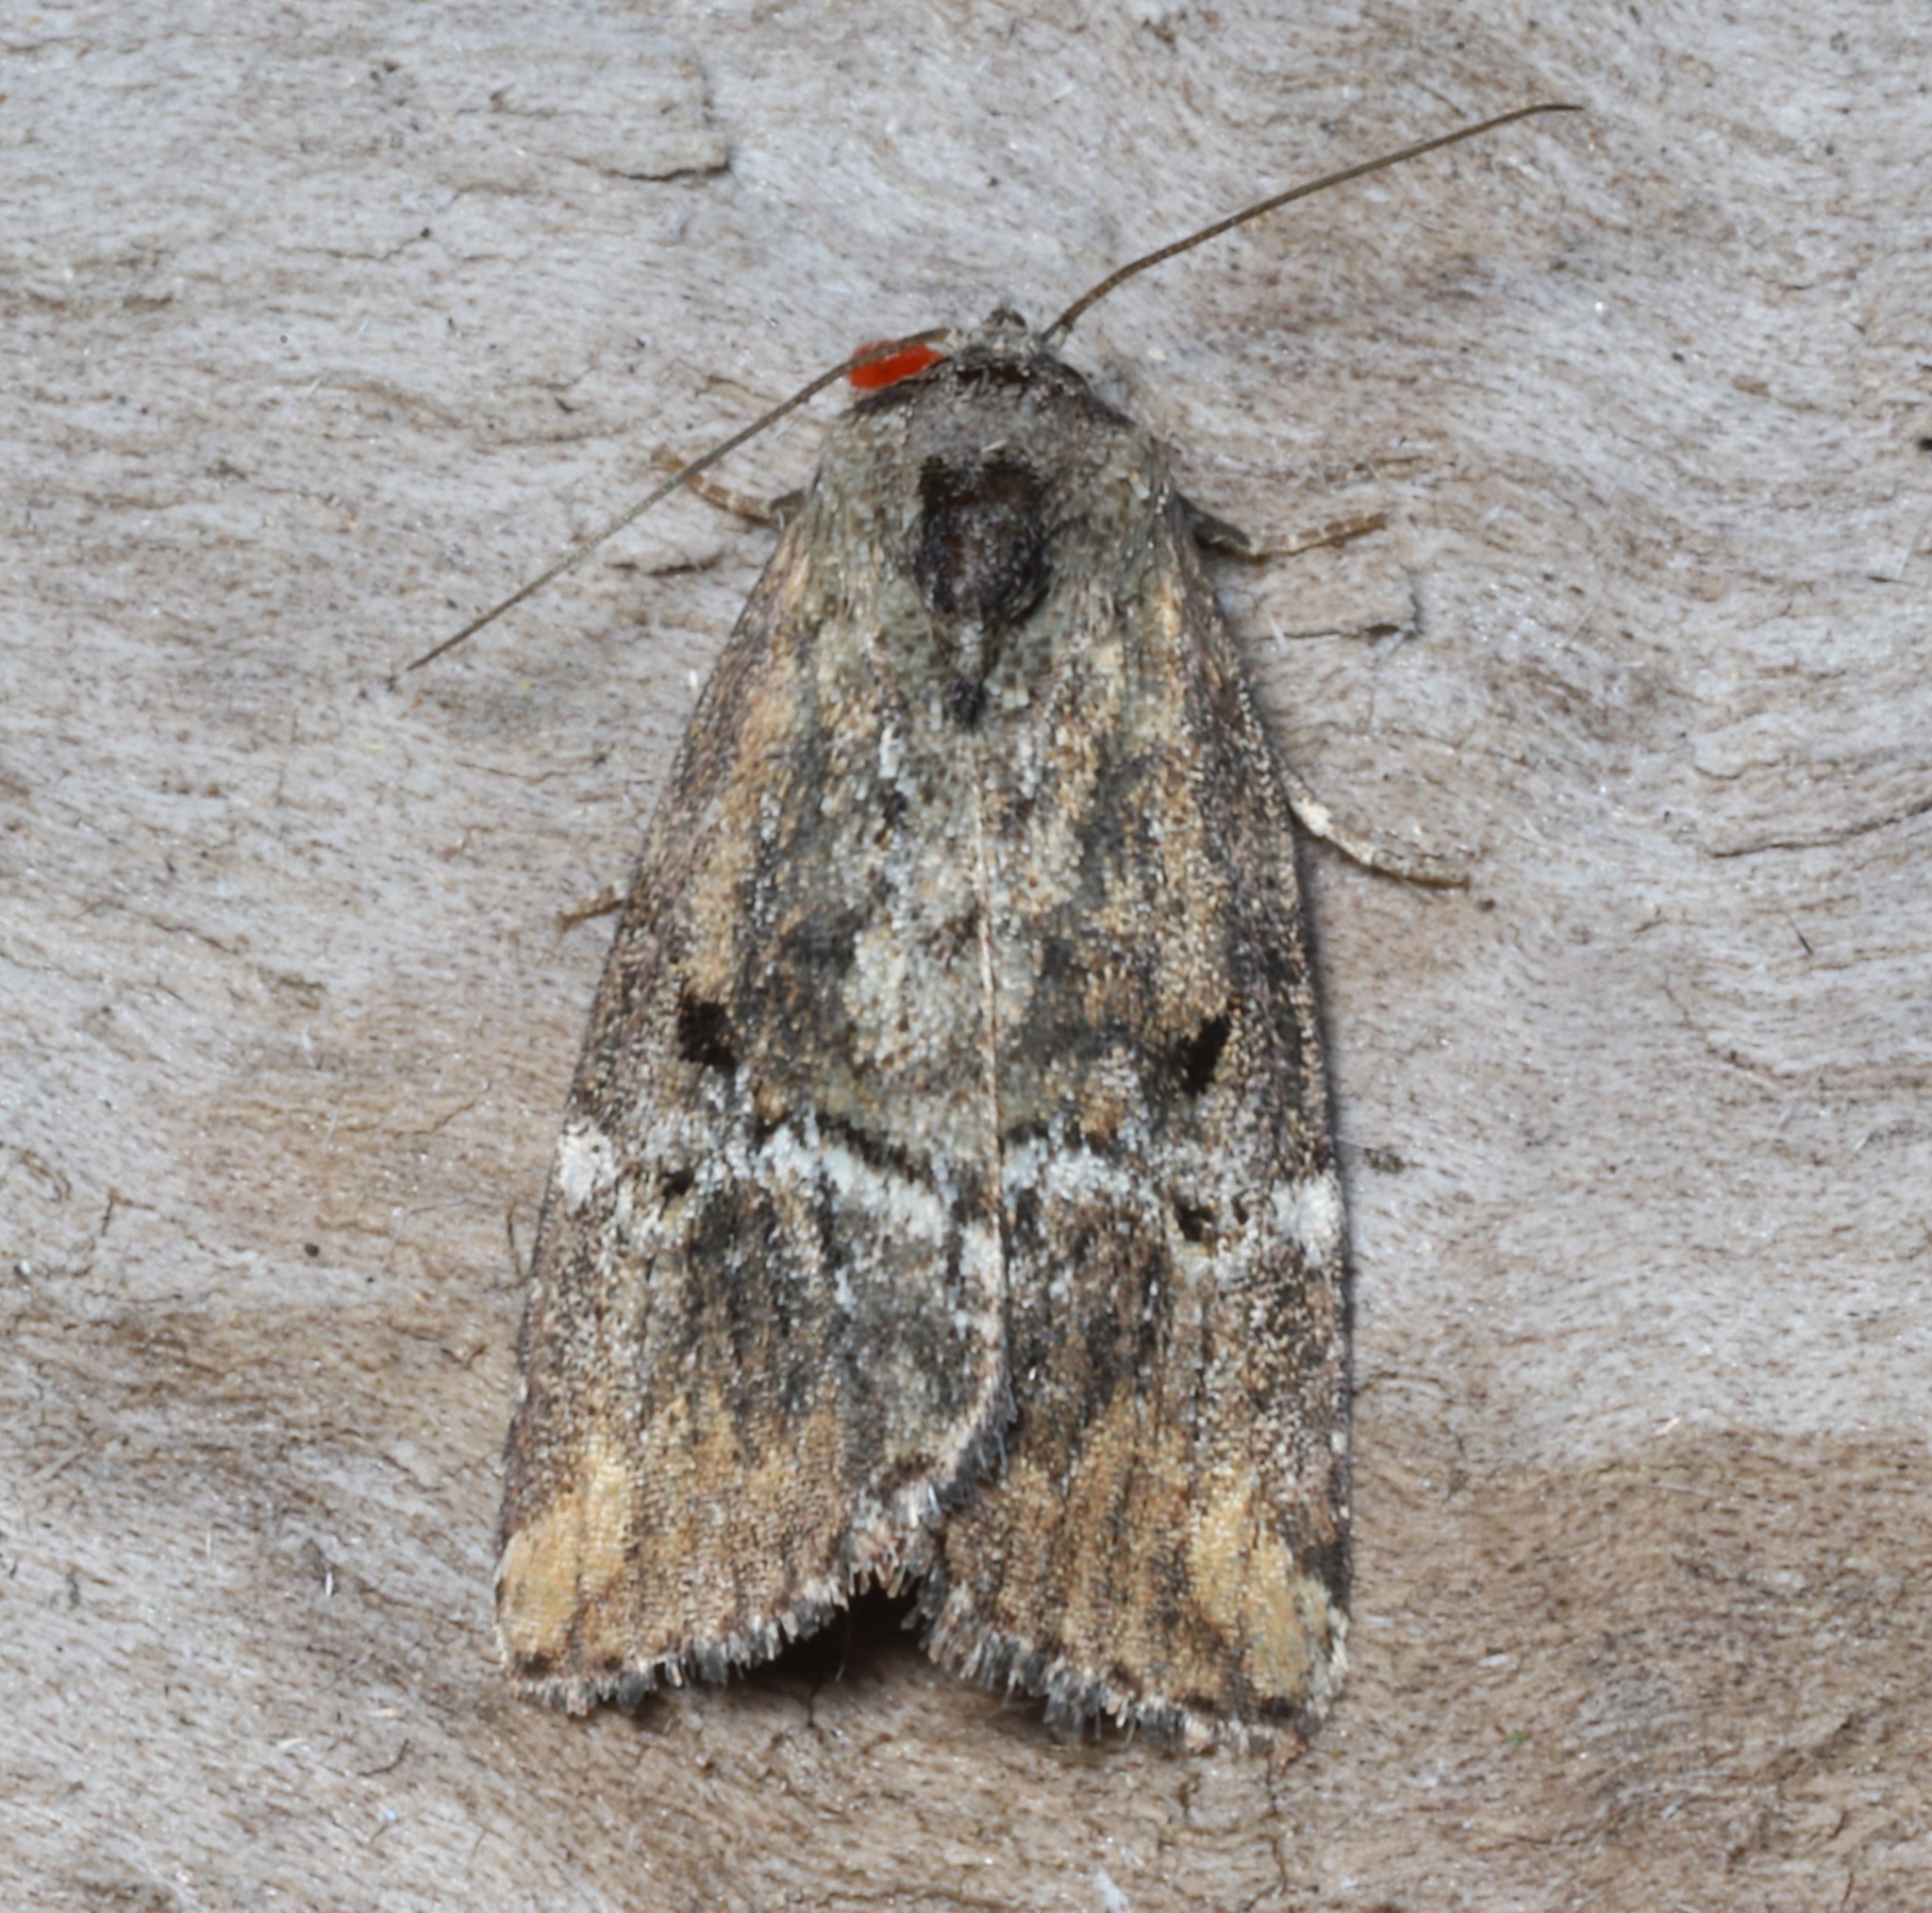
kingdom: Animalia
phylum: Arthropoda
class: Insecta
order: Lepidoptera
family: Noctuidae
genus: Elaphria
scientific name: Elaphria versicolor
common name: Fir harlequin
